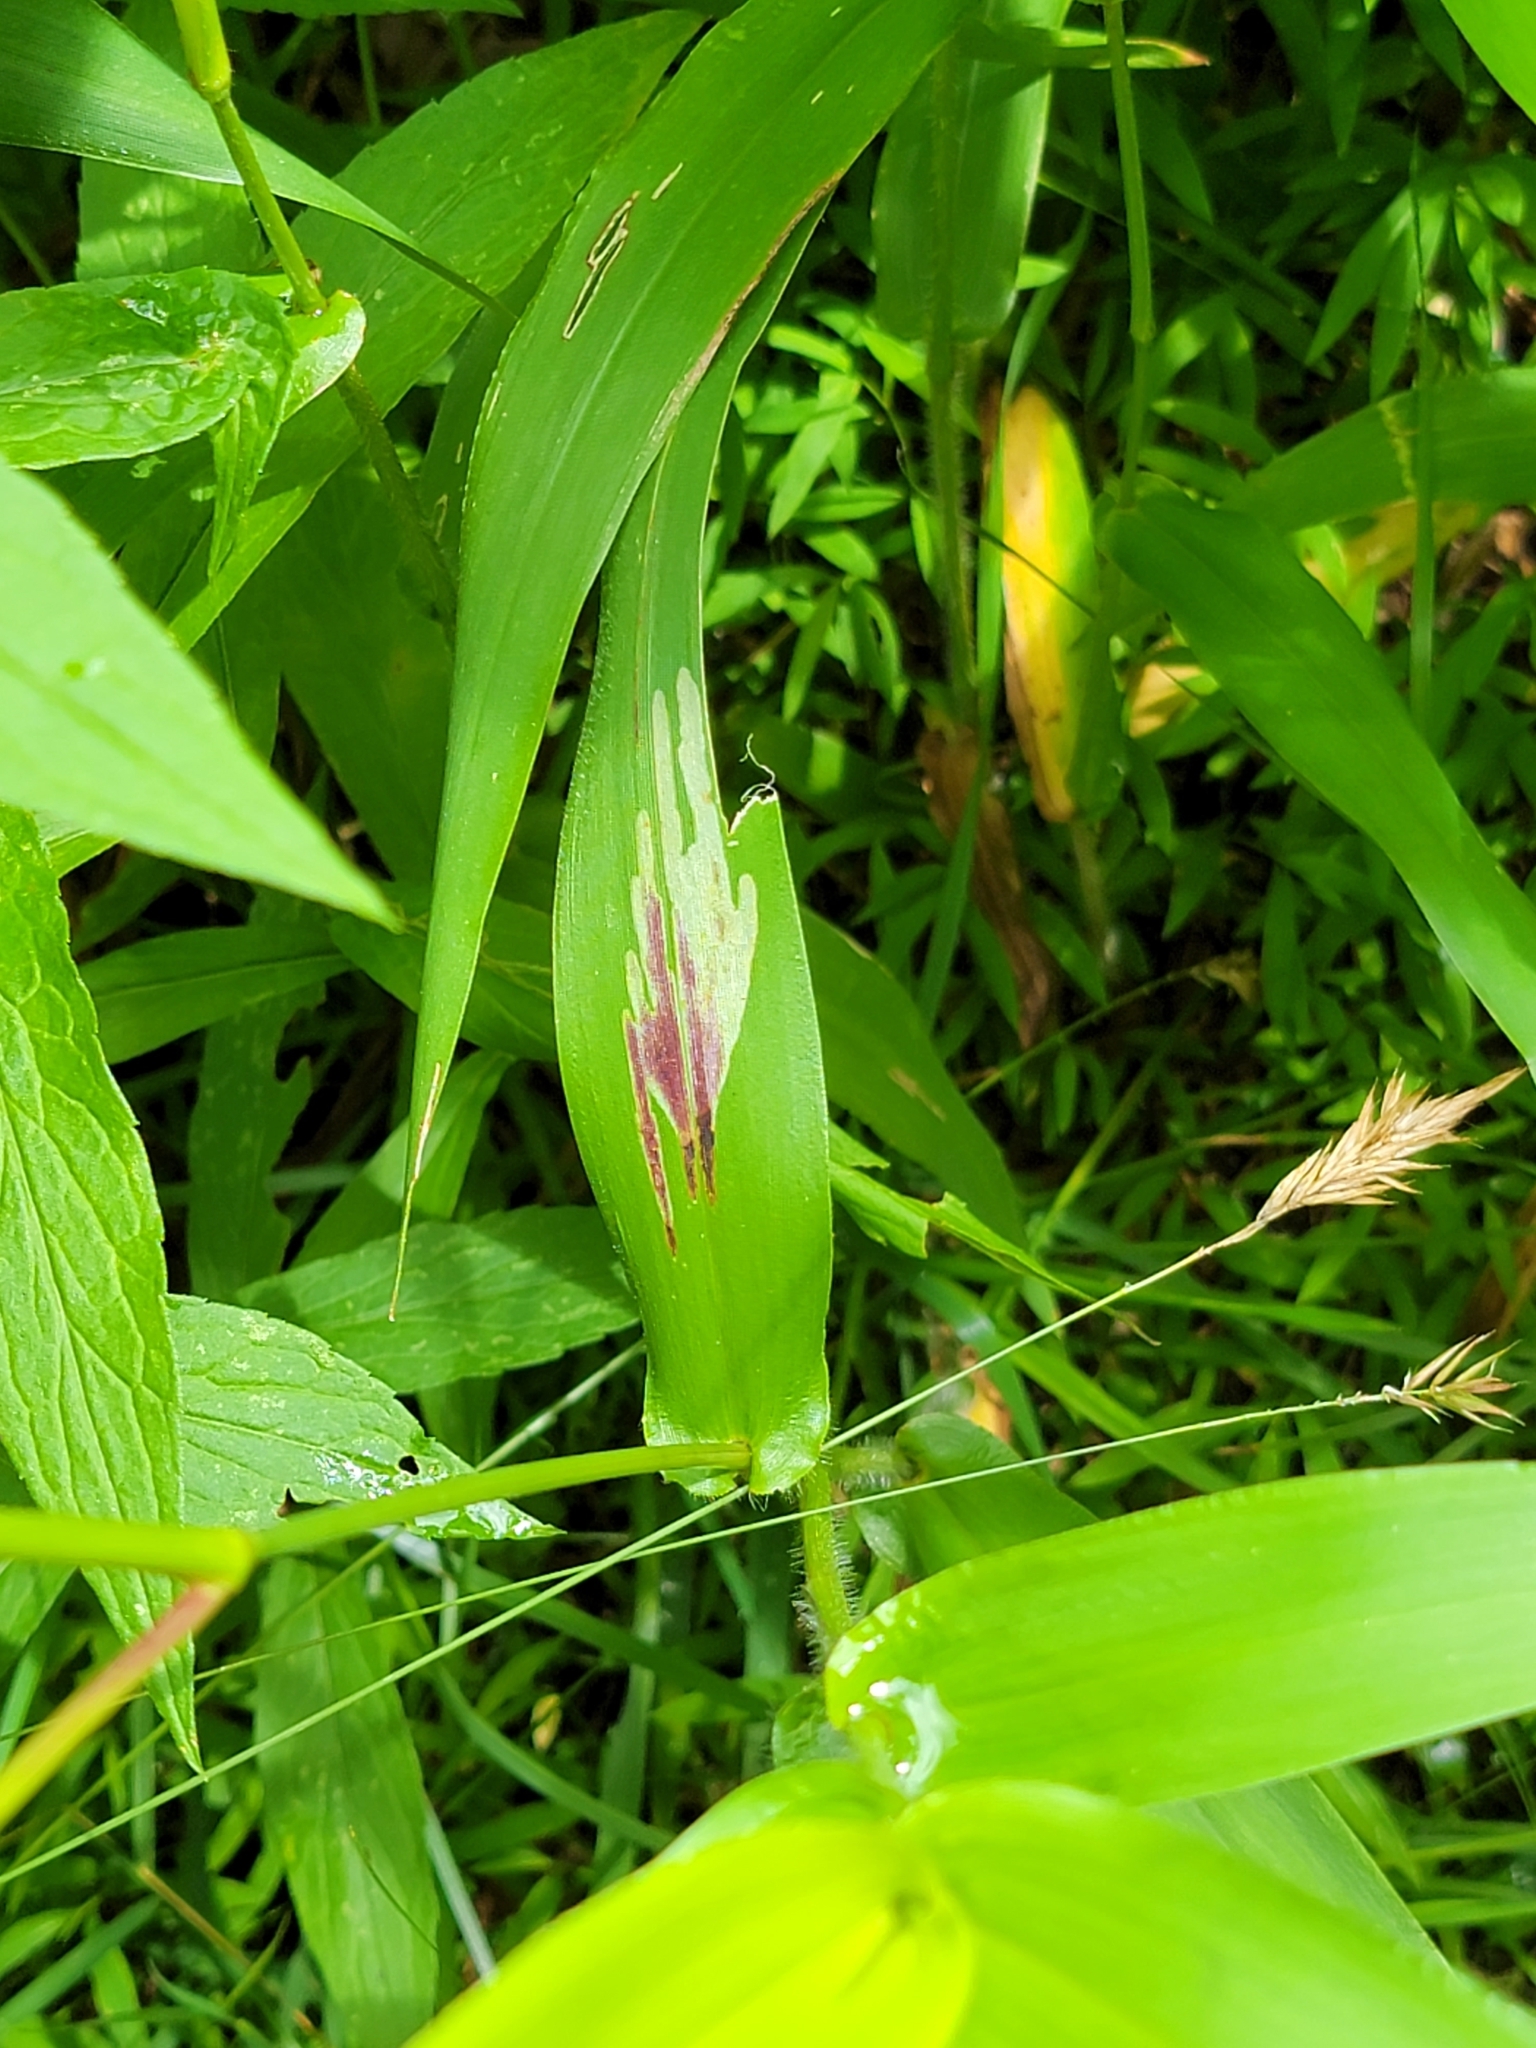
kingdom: Animalia
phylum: Arthropoda
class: Insecta
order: Diptera
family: Agromyzidae
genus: Cerodontha
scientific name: Cerodontha angulata
